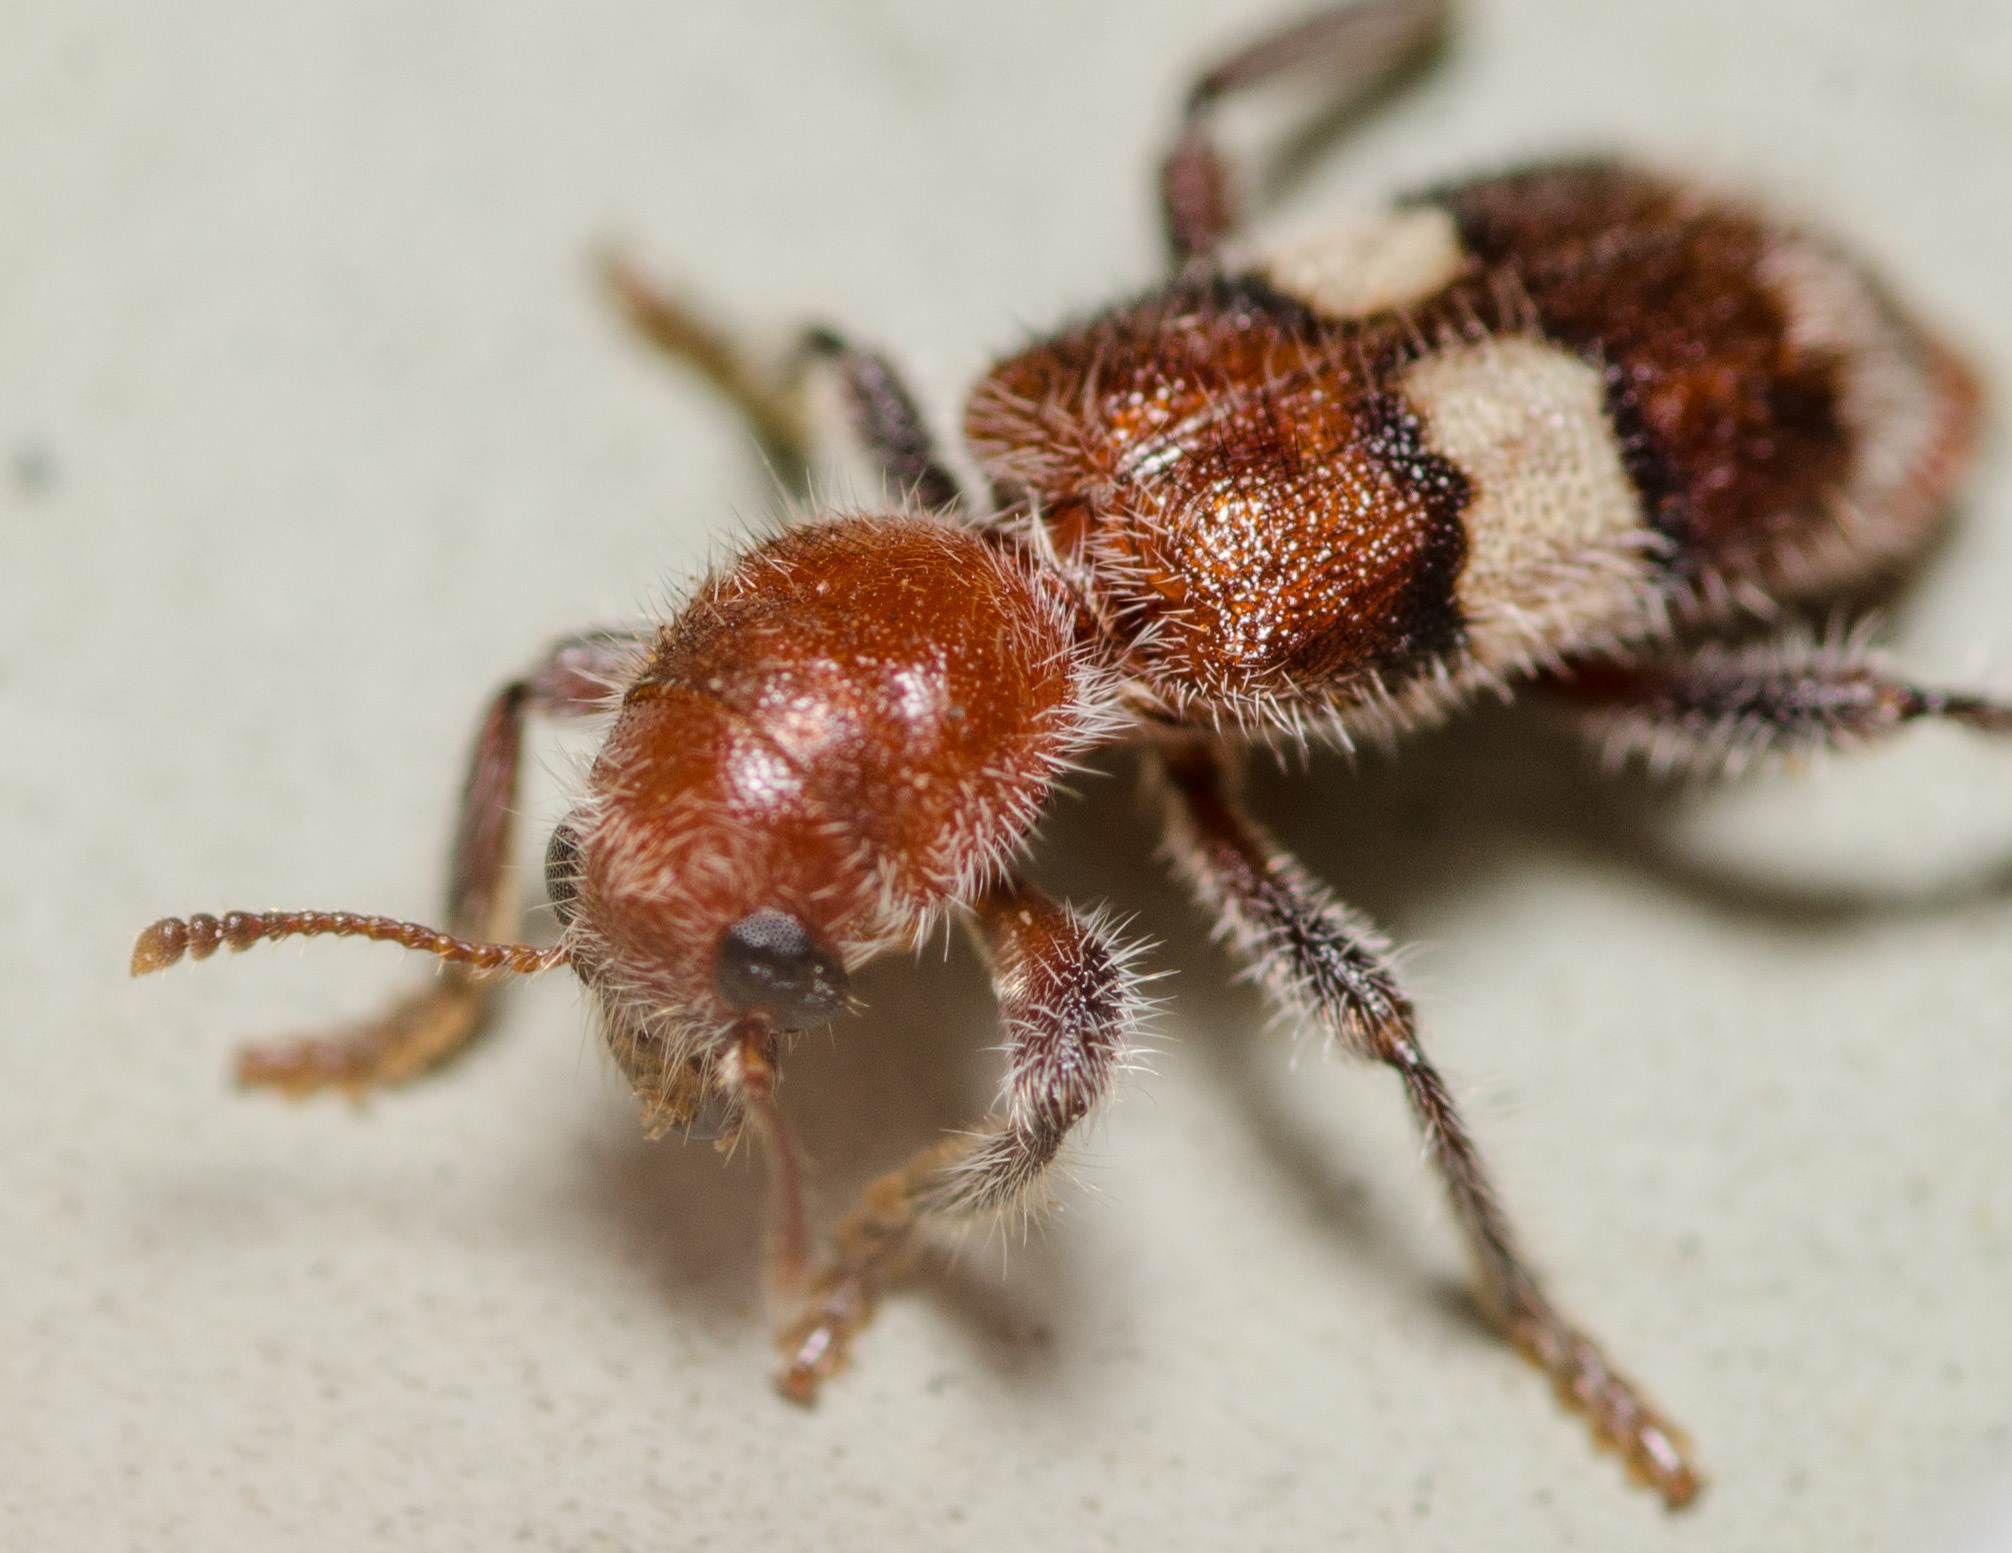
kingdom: Animalia
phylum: Arthropoda
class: Insecta
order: Coleoptera
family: Cleridae
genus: Enoclerus
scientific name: Enoclerus quadrisignatus
